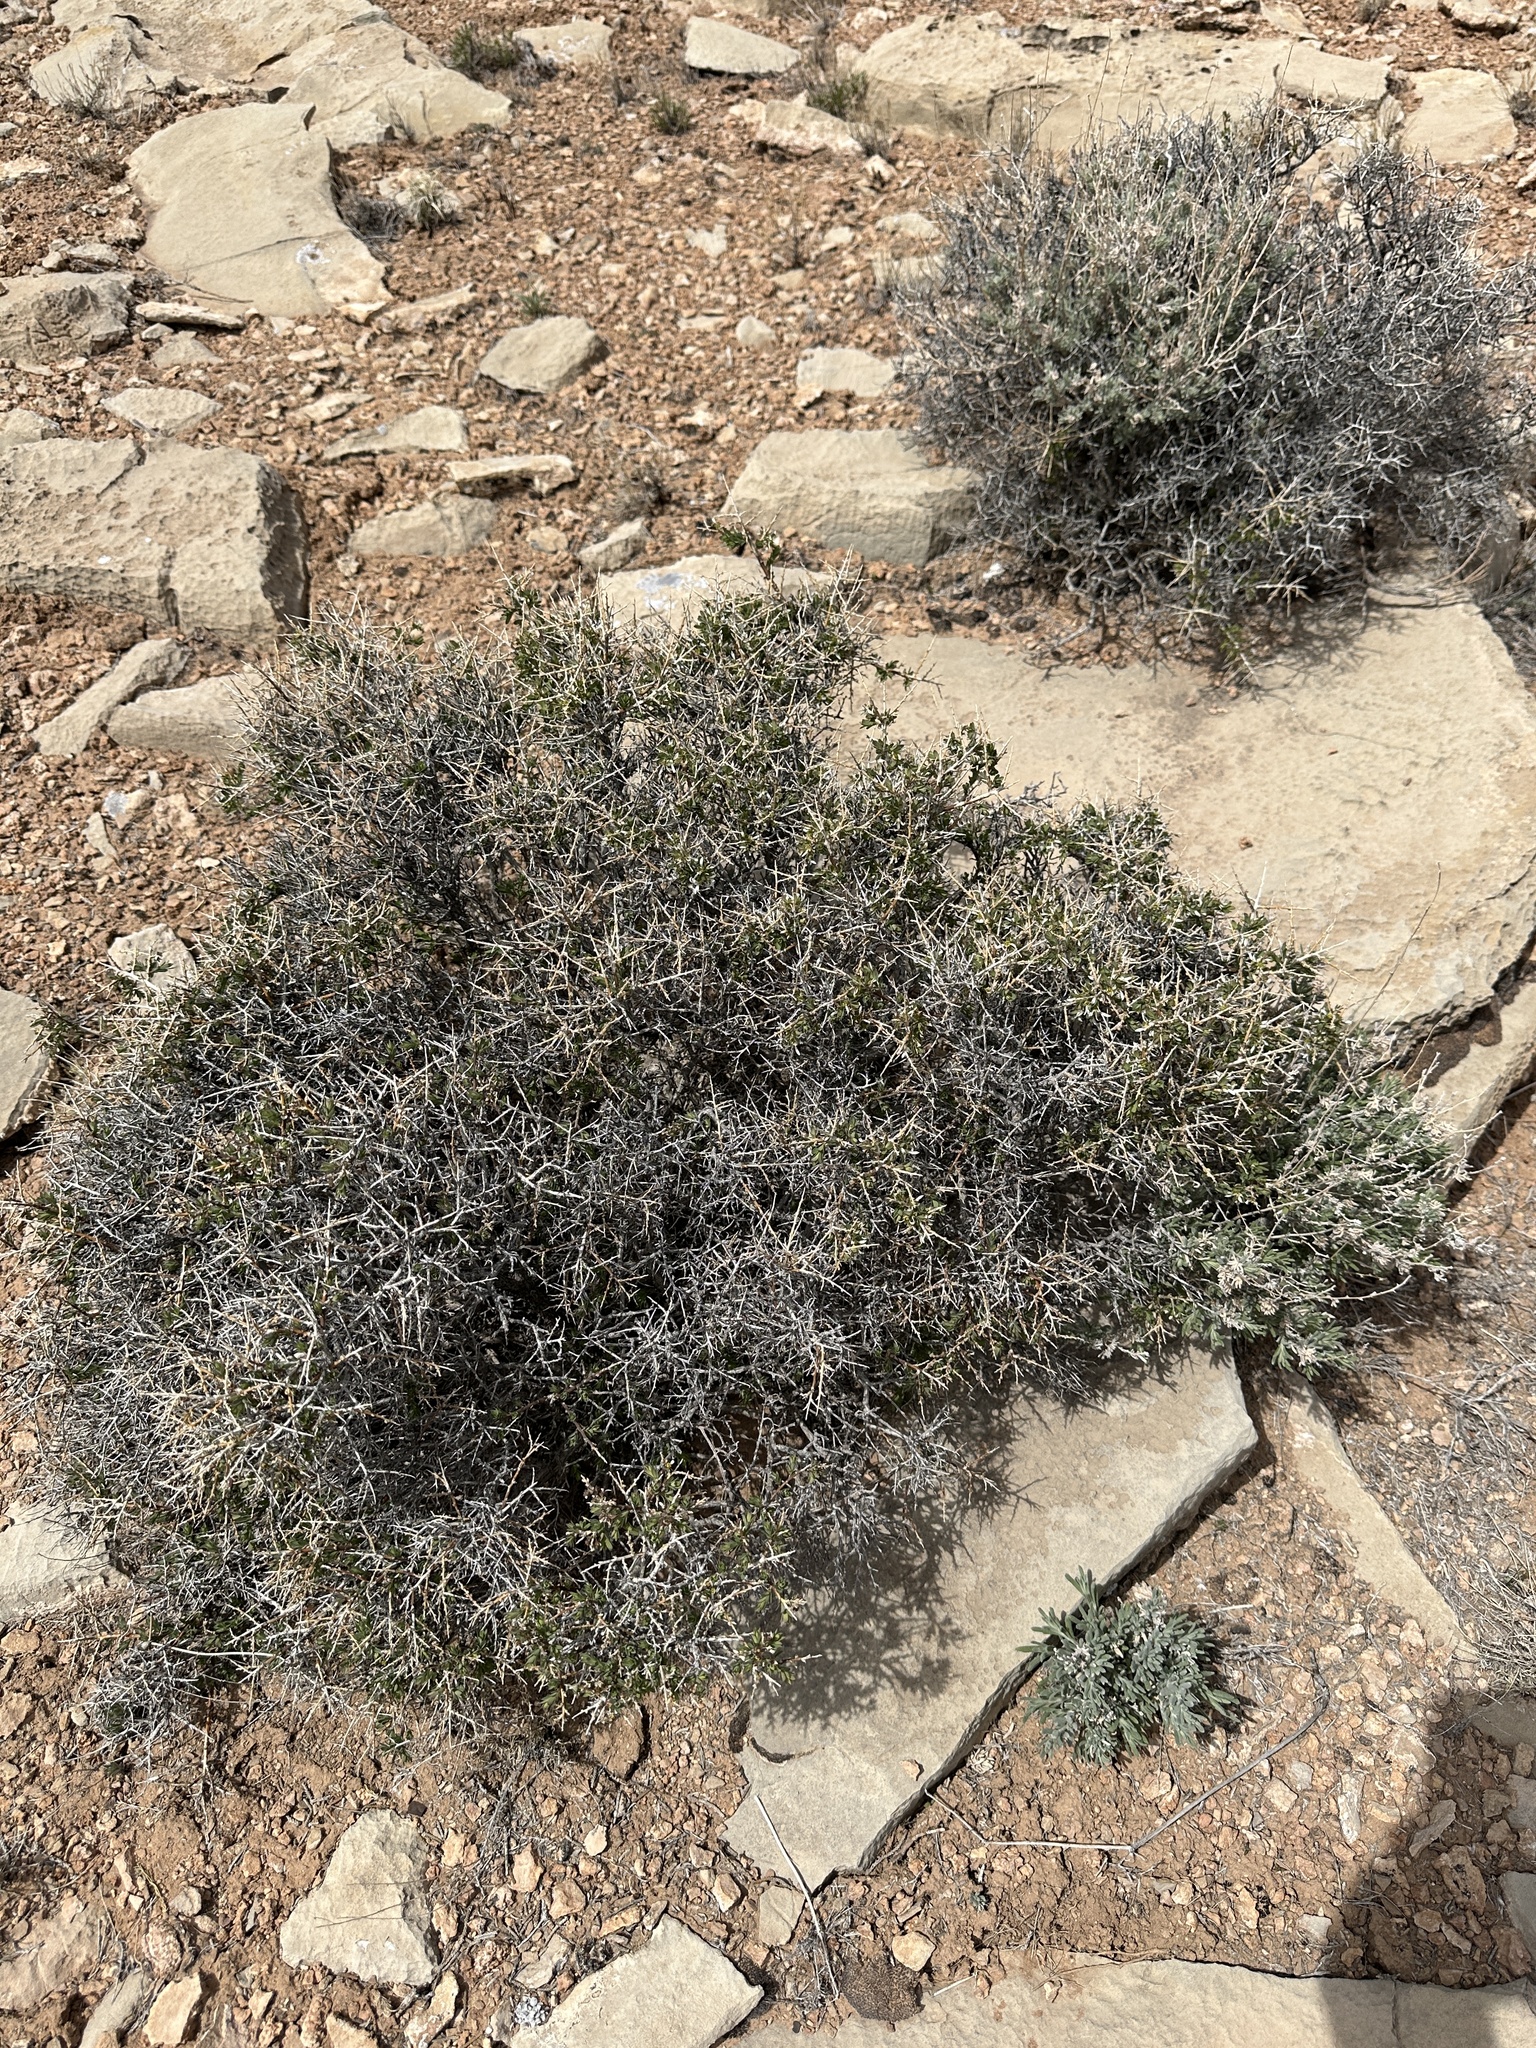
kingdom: Plantae
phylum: Tracheophyta
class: Magnoliopsida
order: Crossosomatales
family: Crossosomataceae
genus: Glossopetalon
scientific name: Glossopetalon spinescens
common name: Spring greasebush
